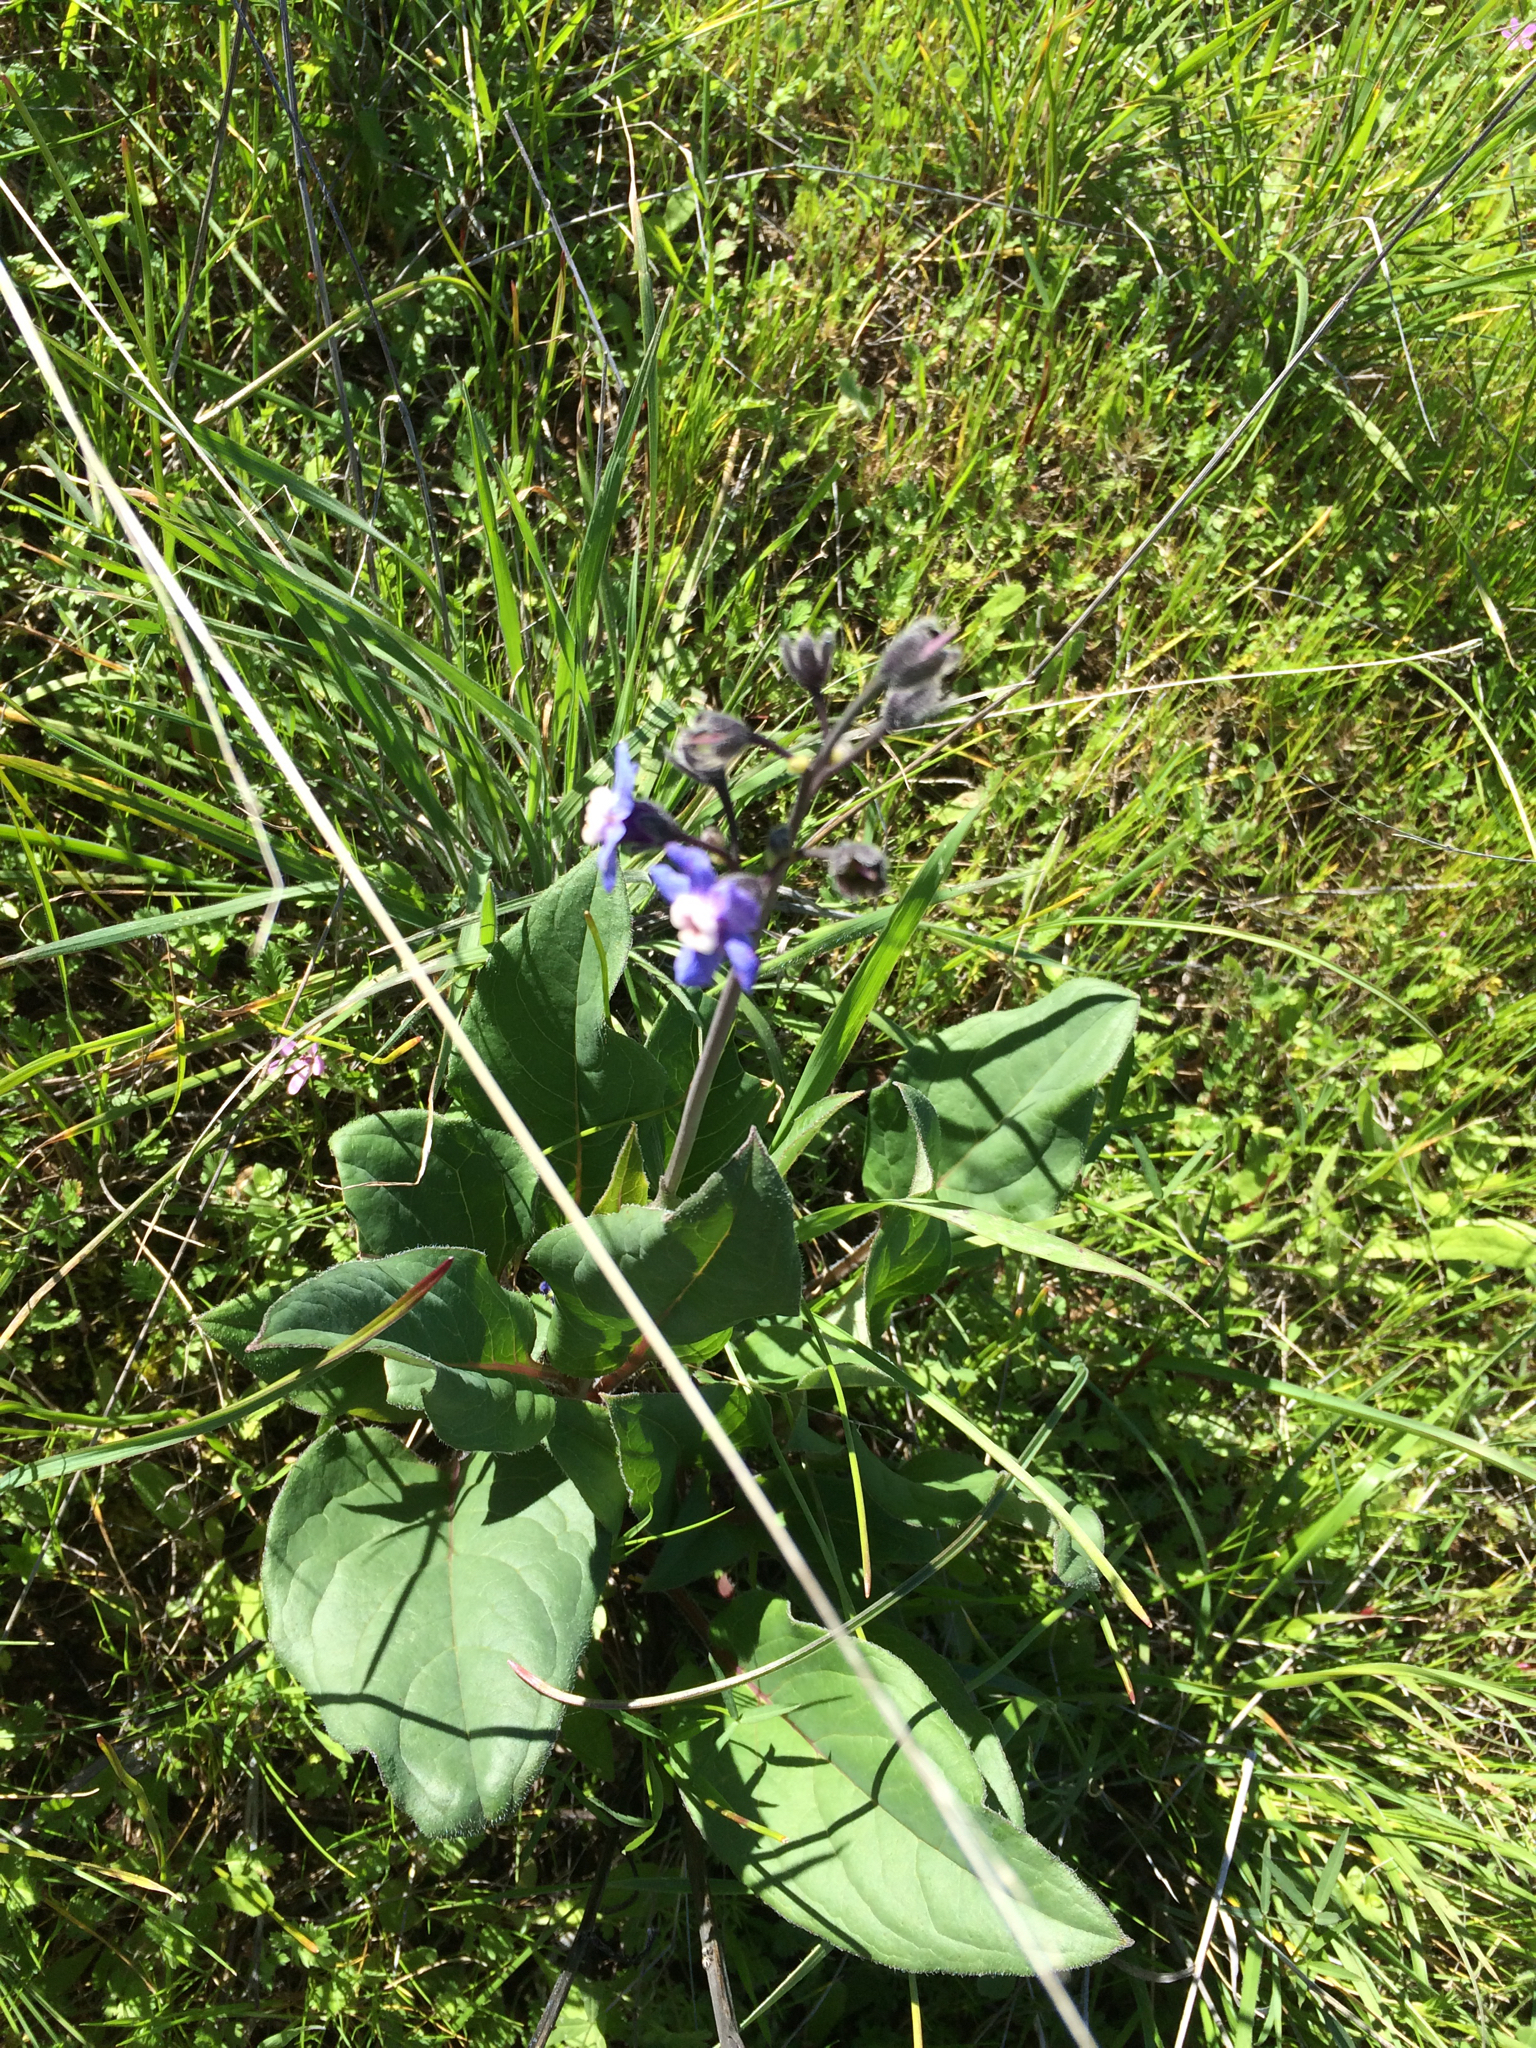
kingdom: Plantae
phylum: Tracheophyta
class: Magnoliopsida
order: Boraginales
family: Boraginaceae
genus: Adelinia
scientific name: Adelinia grande
